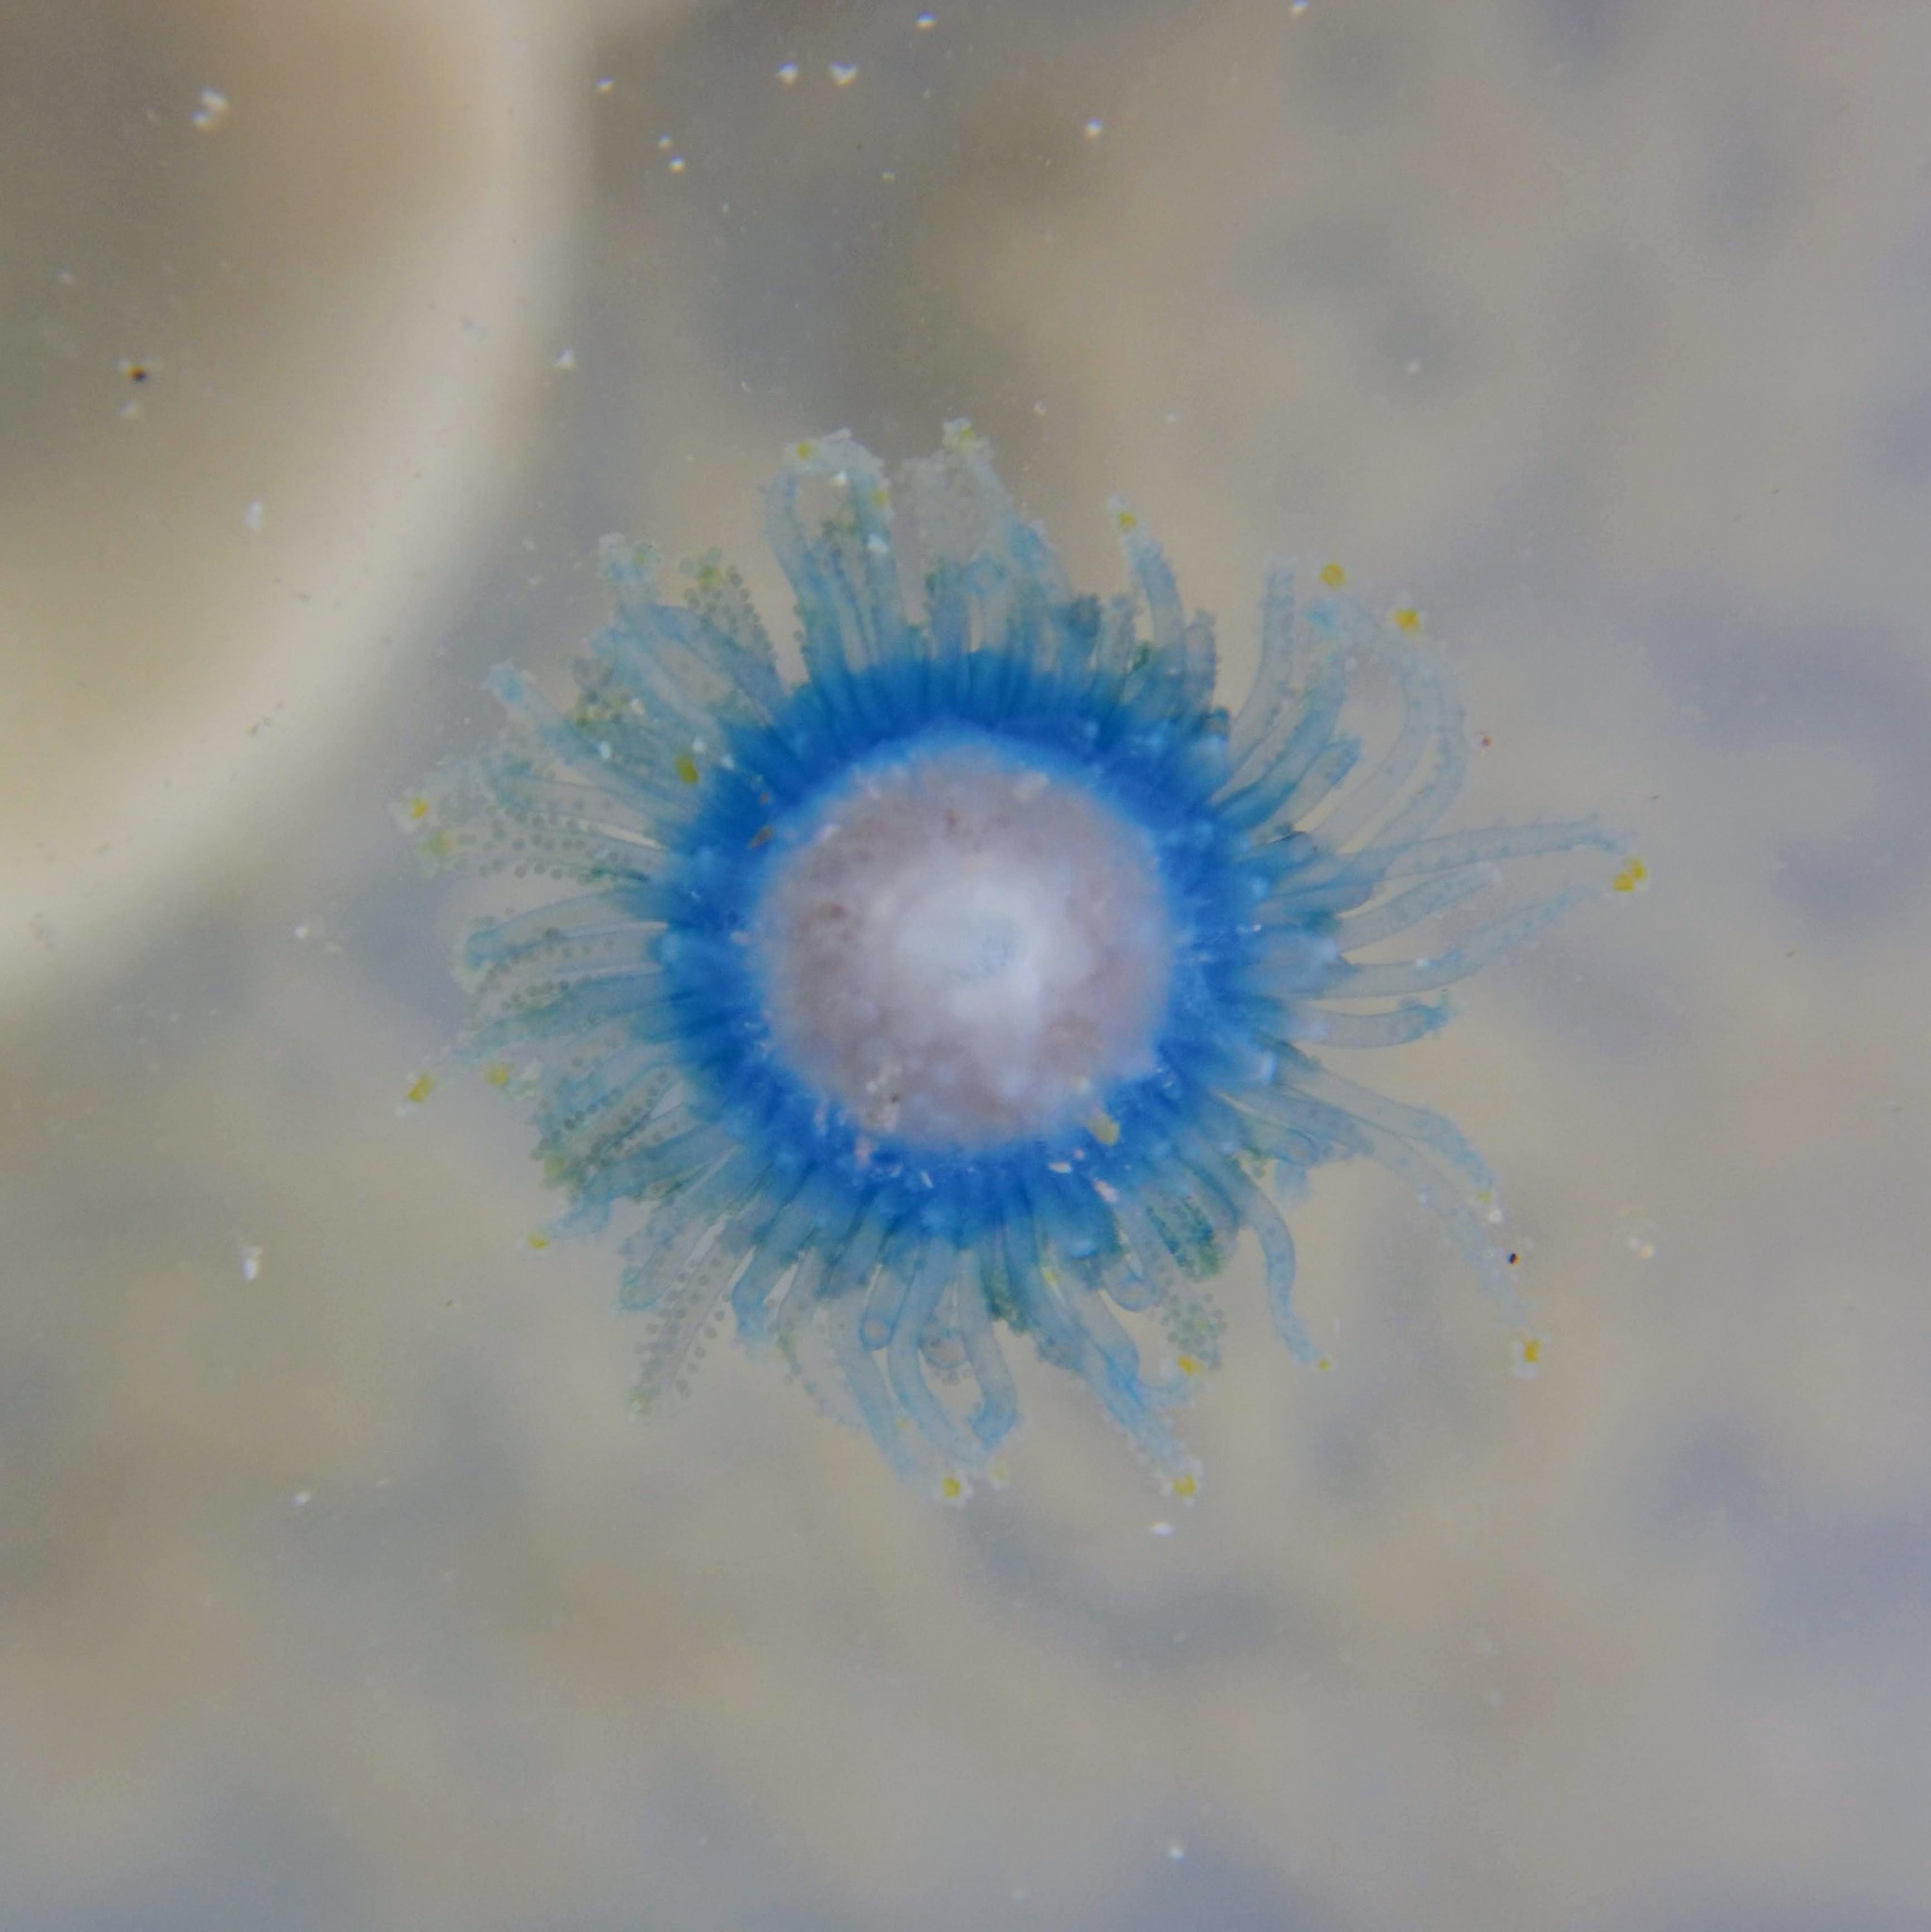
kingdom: Animalia
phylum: Cnidaria
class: Hydrozoa
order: Anthoathecata
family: Porpitidae
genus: Porpita
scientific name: Porpita porpita
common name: Blue button
